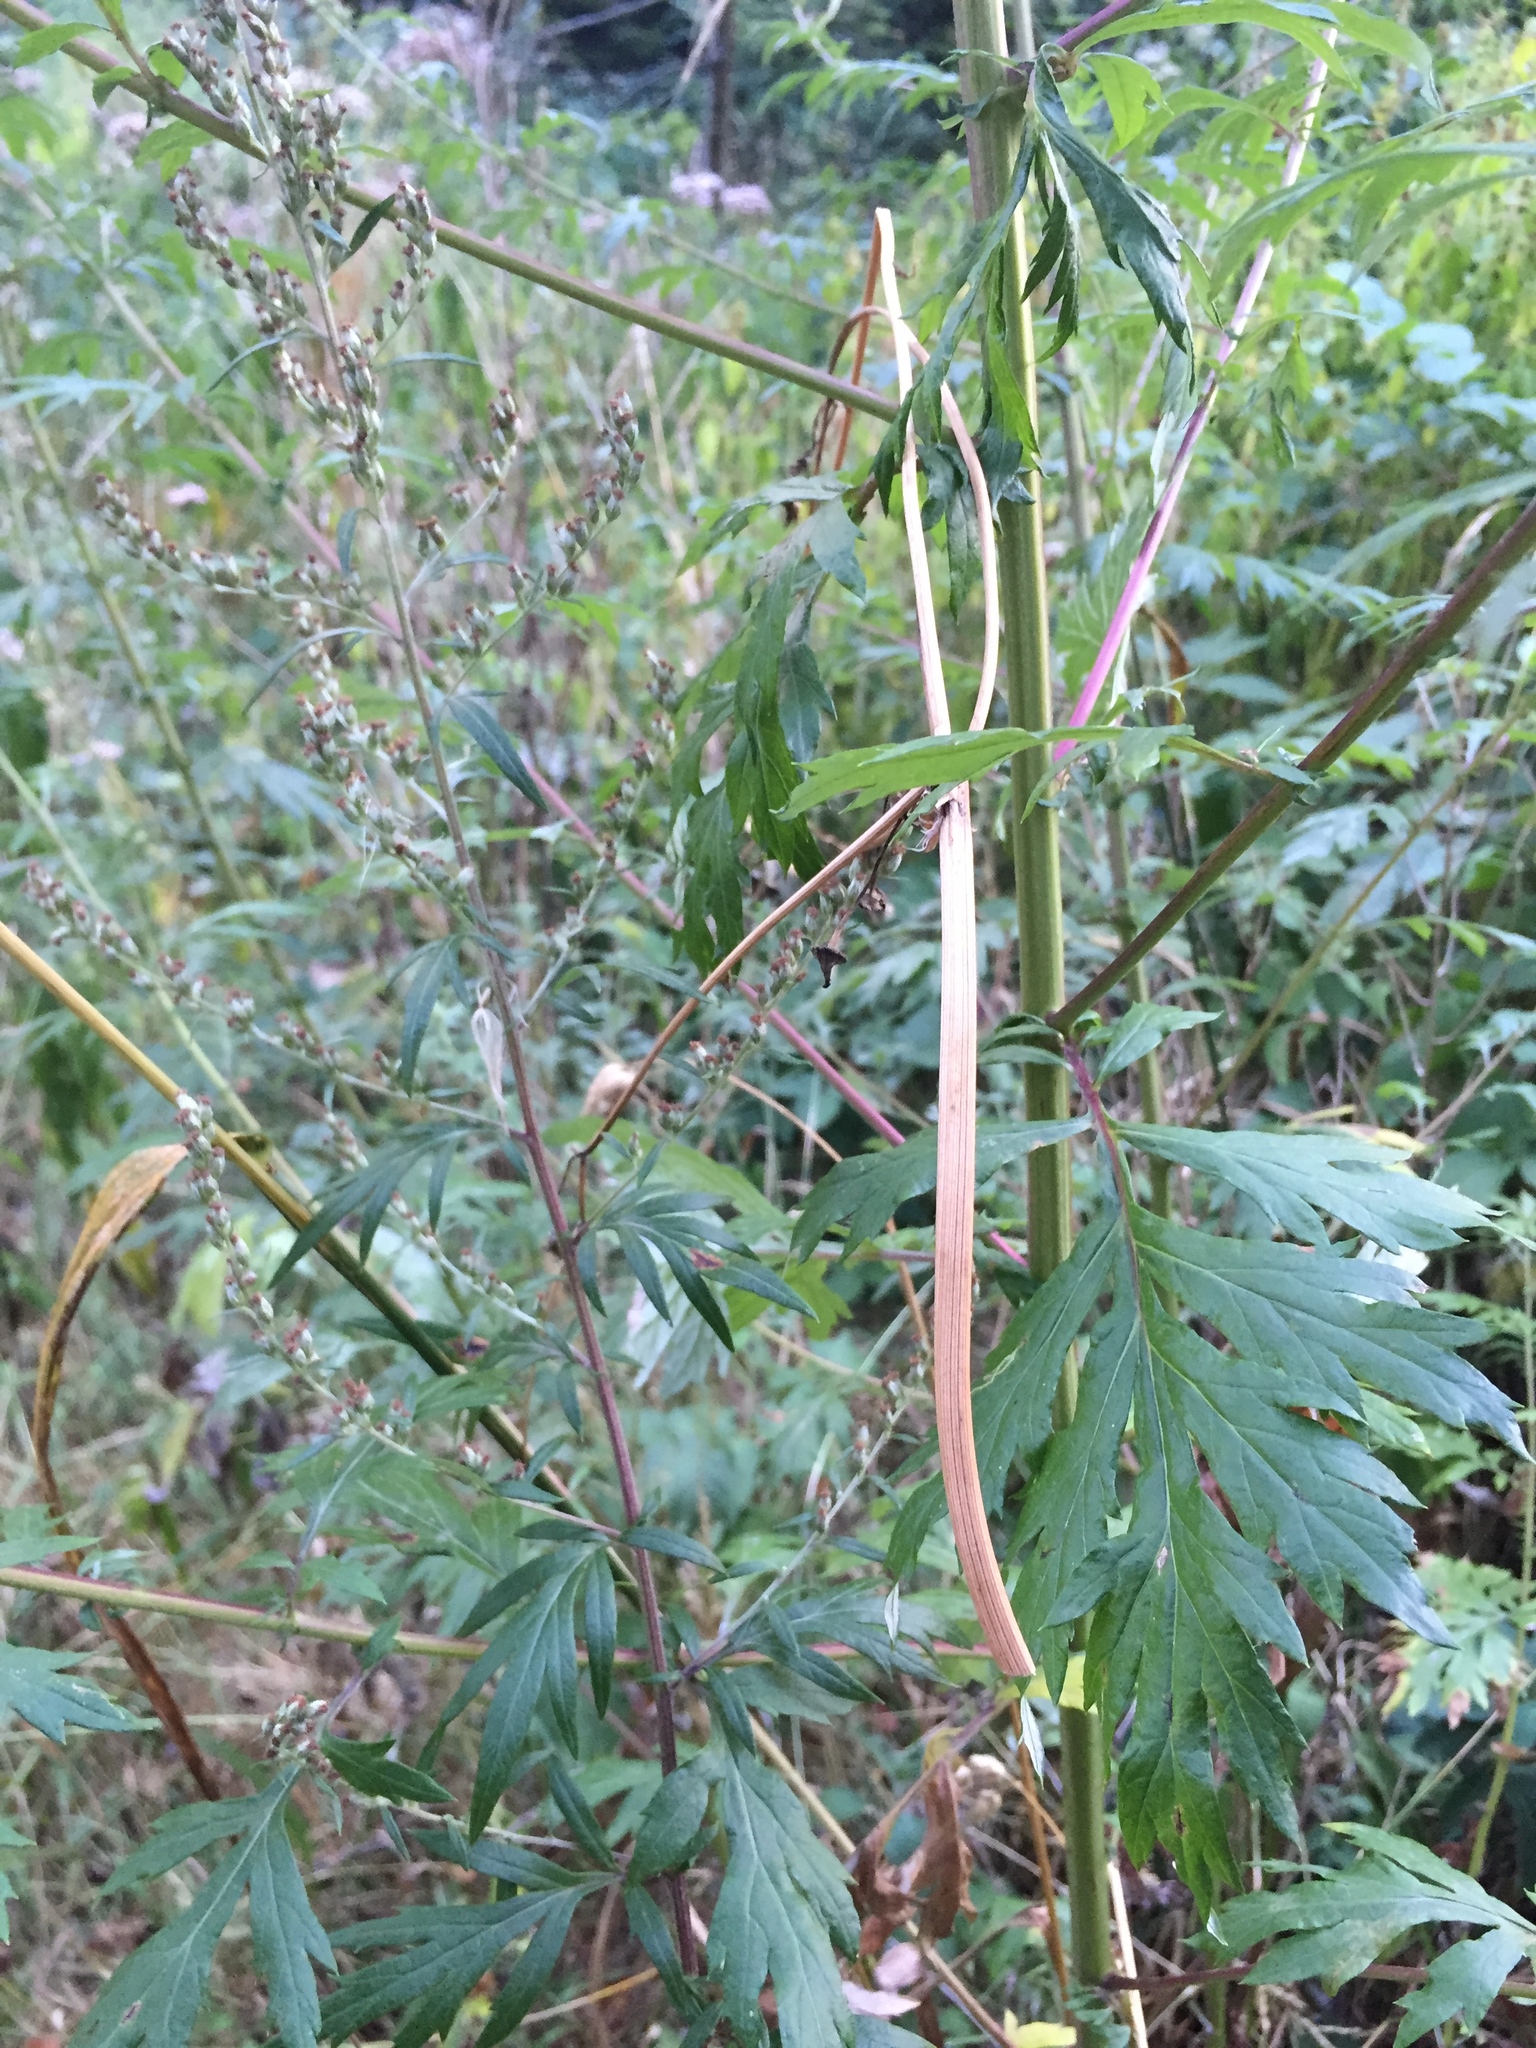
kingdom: Plantae
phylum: Tracheophyta
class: Magnoliopsida
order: Asterales
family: Asteraceae
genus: Artemisia
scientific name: Artemisia vulgaris
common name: Mugwort
